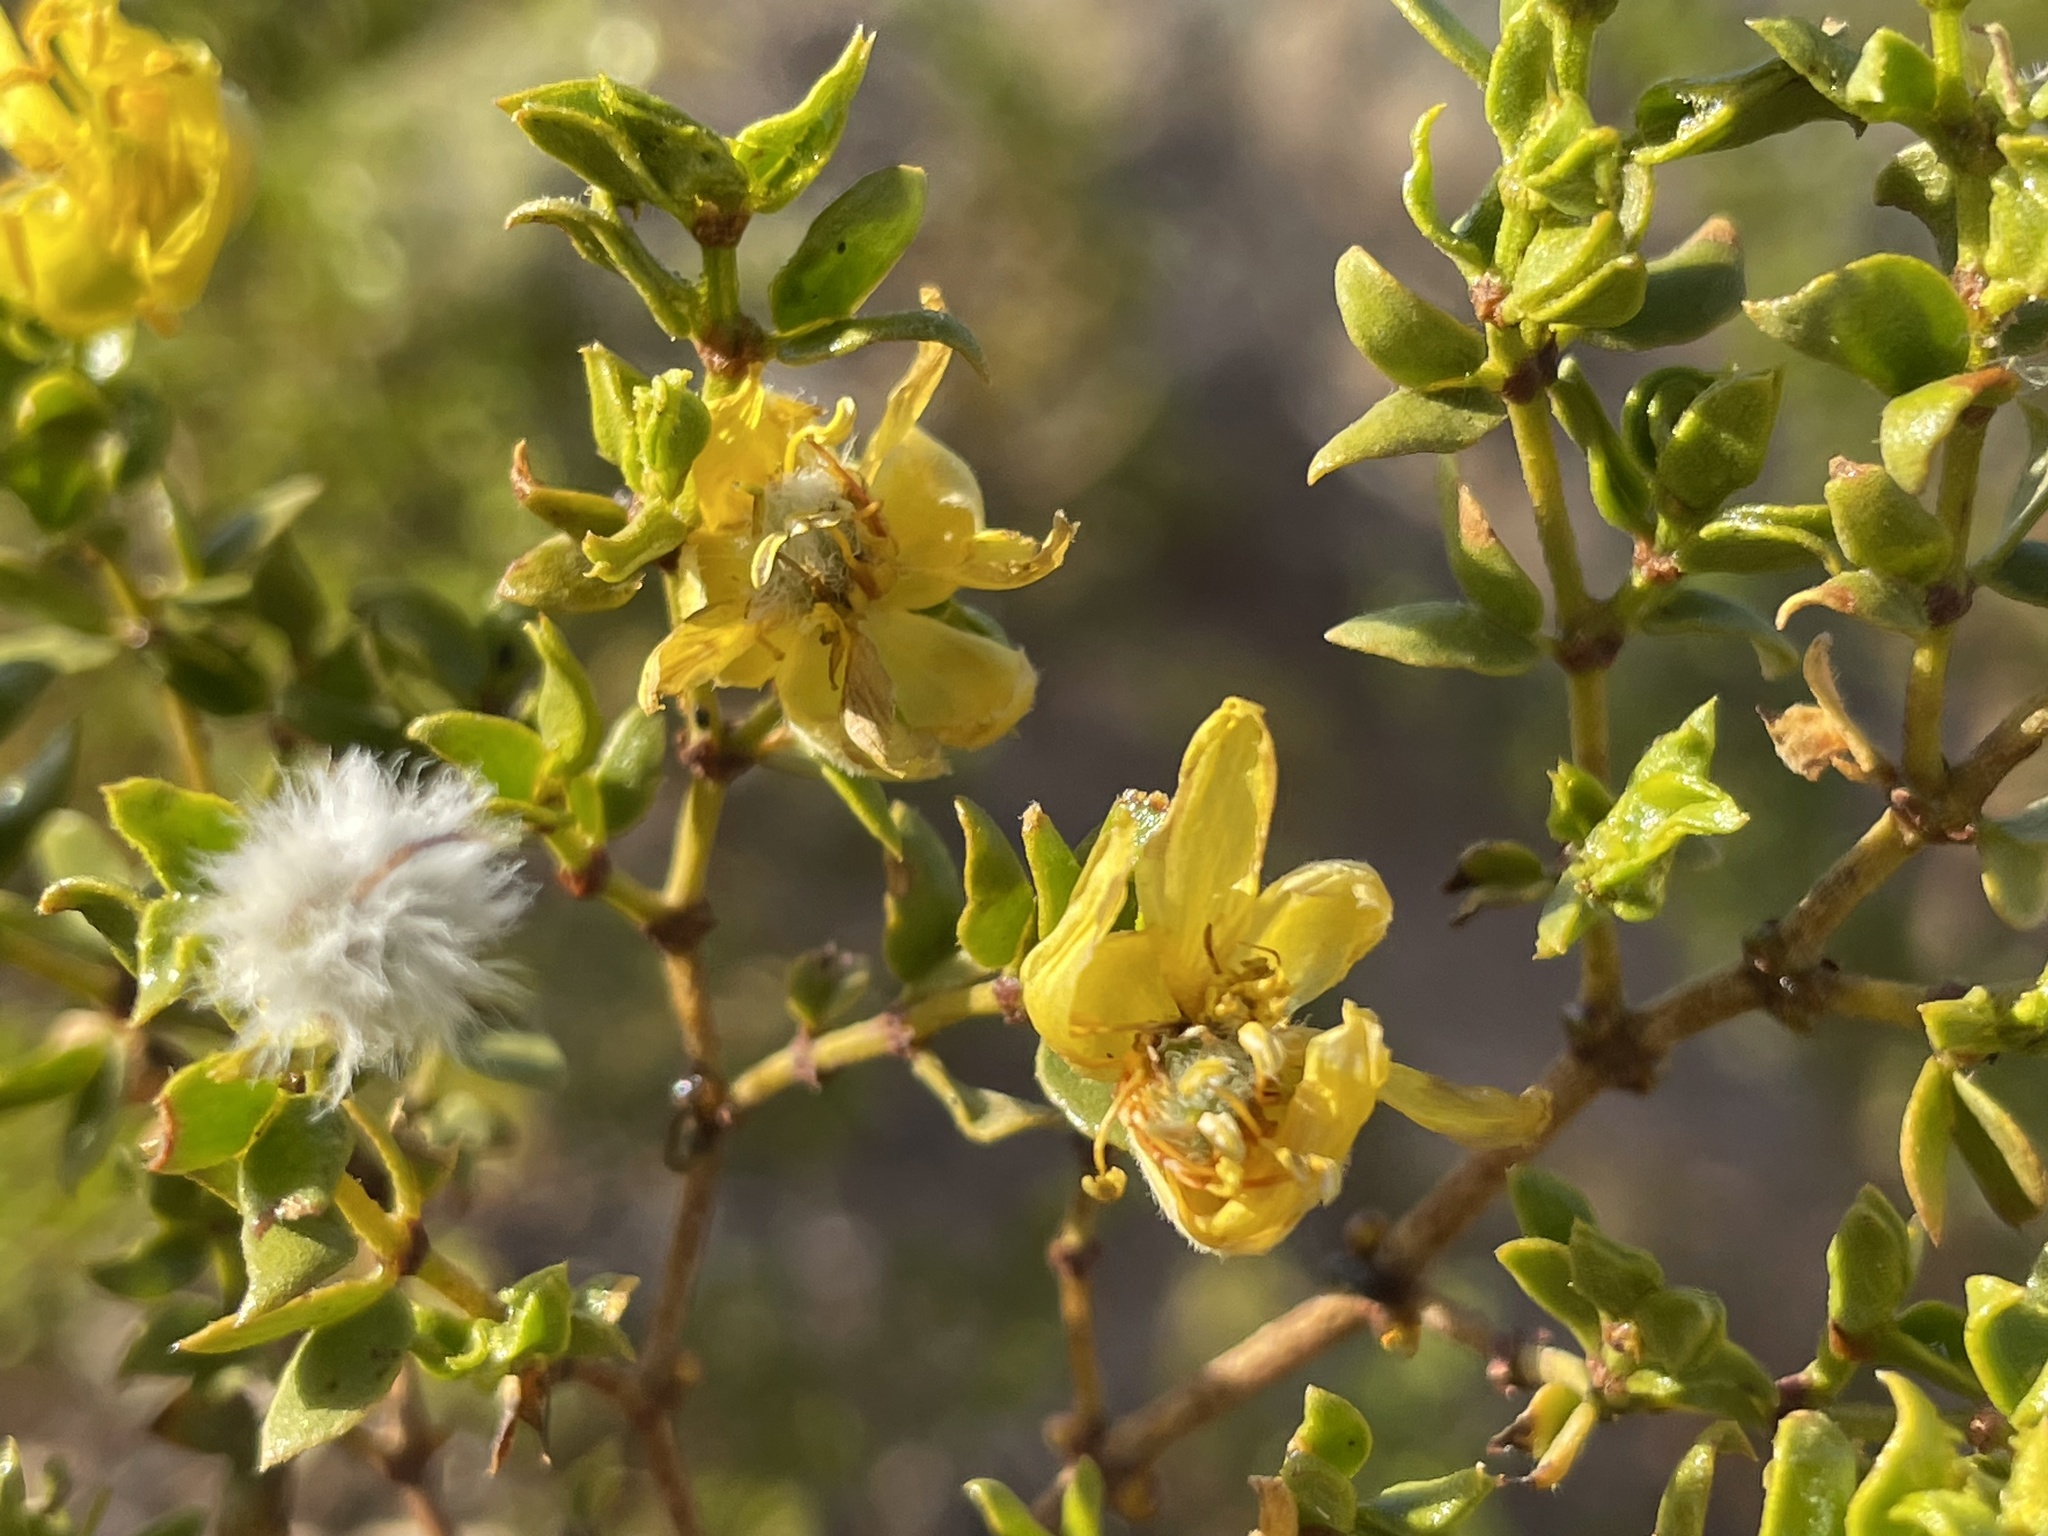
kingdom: Plantae
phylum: Tracheophyta
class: Magnoliopsida
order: Zygophyllales
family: Zygophyllaceae
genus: Larrea
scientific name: Larrea tridentata
